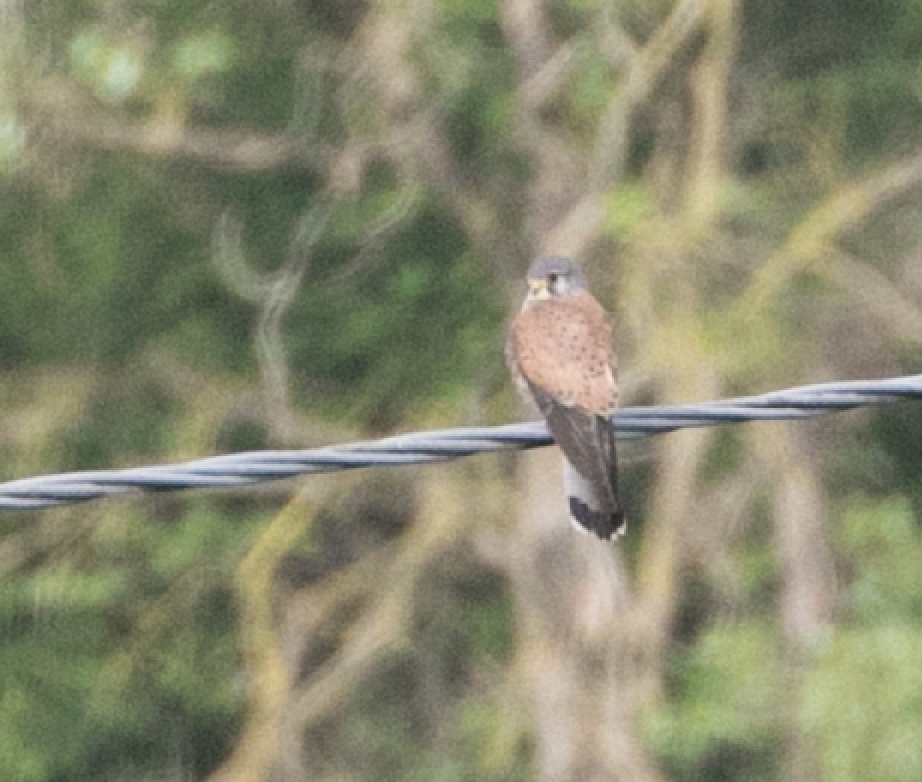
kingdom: Animalia
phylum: Chordata
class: Aves
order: Falconiformes
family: Falconidae
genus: Falco
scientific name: Falco tinnunculus
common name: Common kestrel
